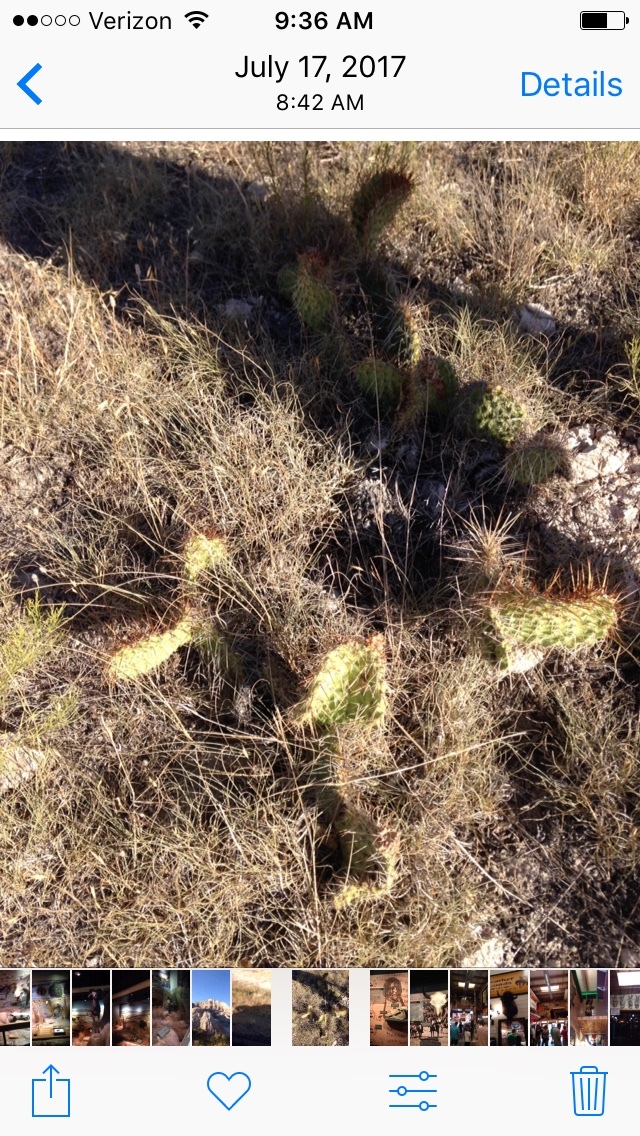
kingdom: Plantae
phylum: Tracheophyta
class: Magnoliopsida
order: Caryophyllales
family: Cactaceae
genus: Opuntia
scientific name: Opuntia polyacantha
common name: Plains prickly-pear
